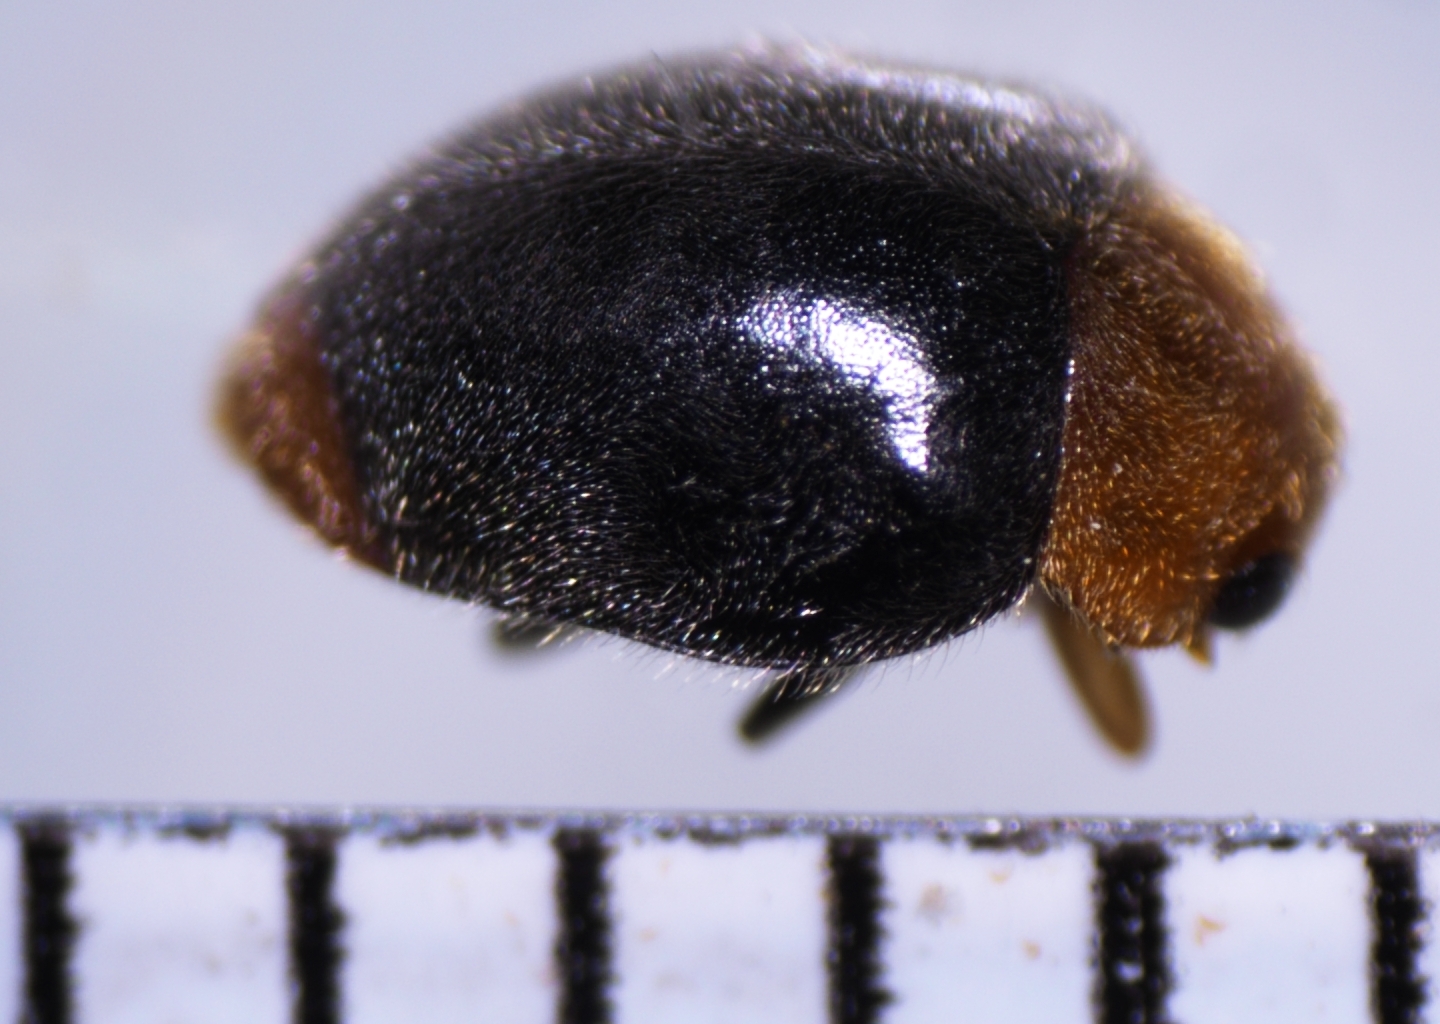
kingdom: Animalia
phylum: Arthropoda
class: Insecta
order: Coleoptera
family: Coccinellidae
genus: Cryptolaemus
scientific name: Cryptolaemus montrouzieri
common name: Mealybug destroyer
